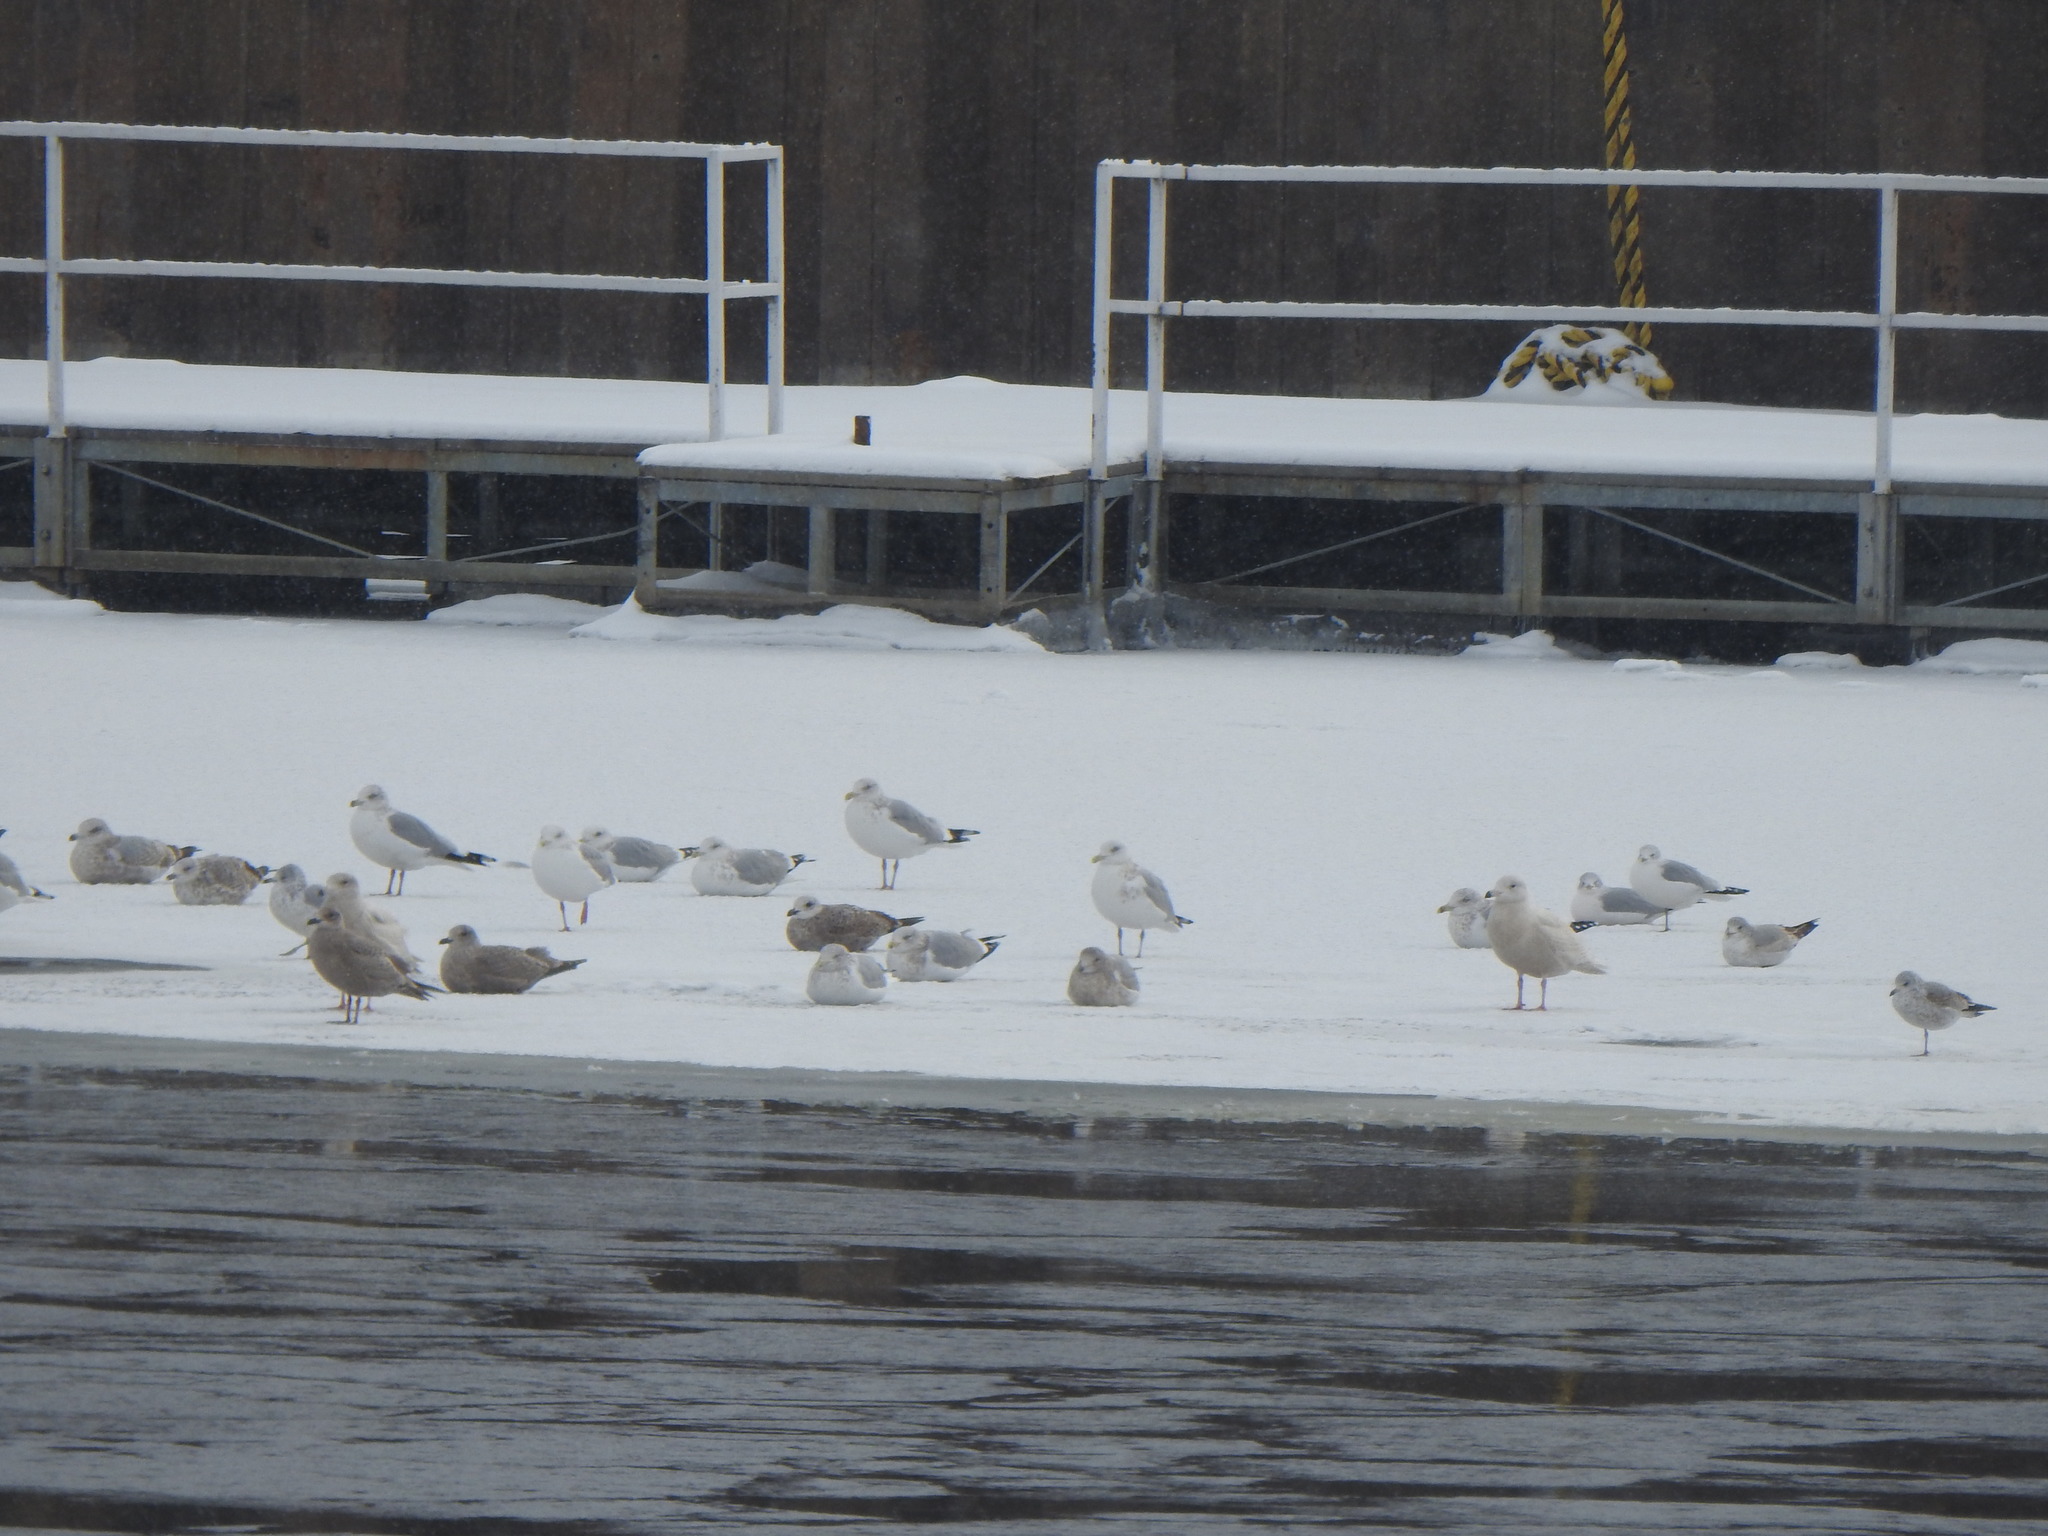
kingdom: Animalia
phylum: Chordata
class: Aves
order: Charadriiformes
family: Laridae
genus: Larus
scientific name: Larus hyperboreus
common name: Glaucous gull
